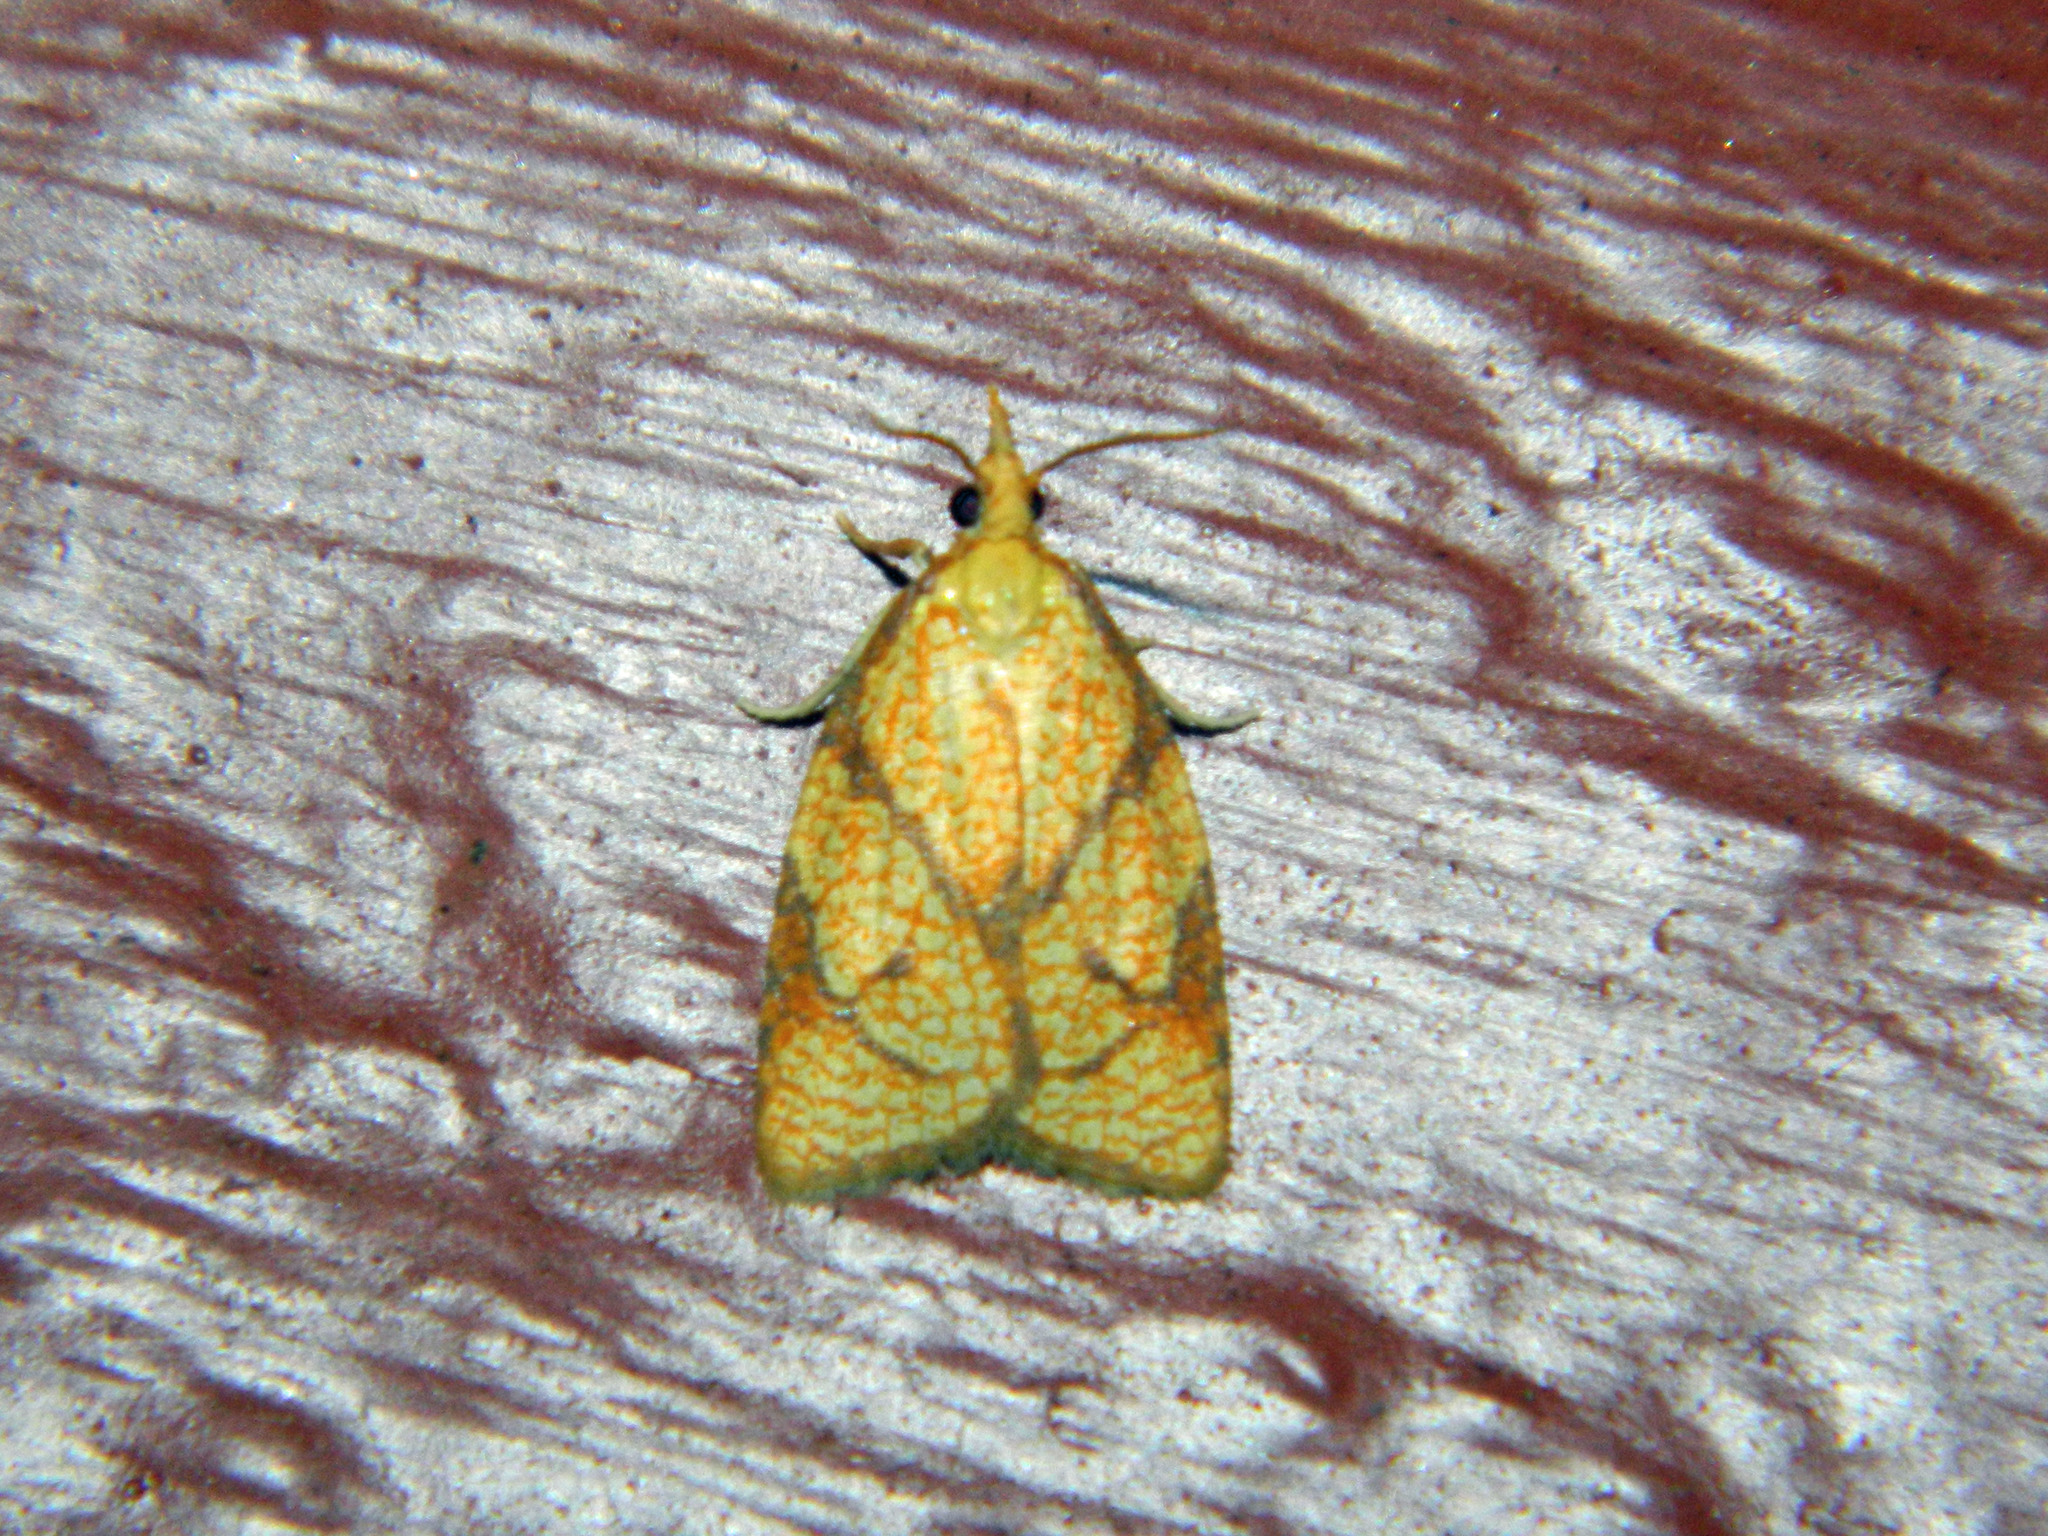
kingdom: Animalia
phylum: Arthropoda
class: Insecta
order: Lepidoptera
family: Tortricidae
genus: Cenopis
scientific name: Cenopis reticulatana
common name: Reticulated fruitworm moth
